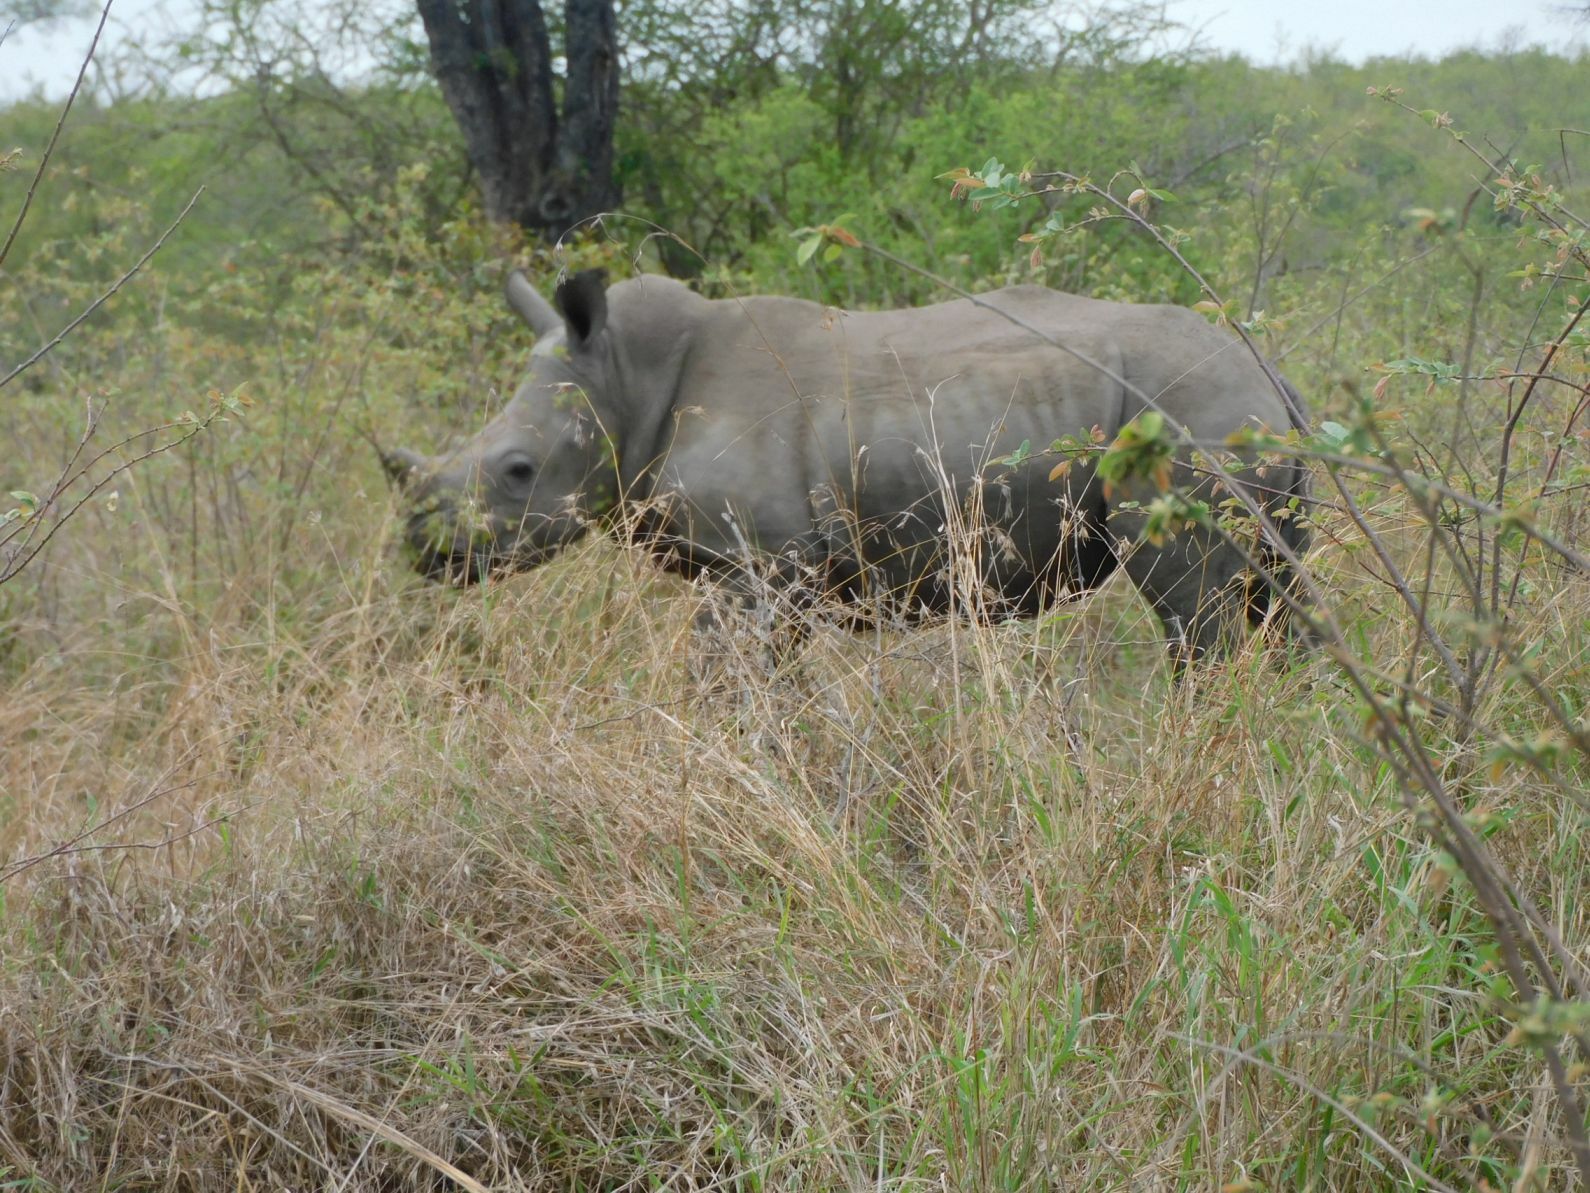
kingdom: Animalia
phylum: Chordata
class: Mammalia
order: Perissodactyla
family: Rhinocerotidae
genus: Ceratotherium
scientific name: Ceratotherium simum
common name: White rhinoceros
